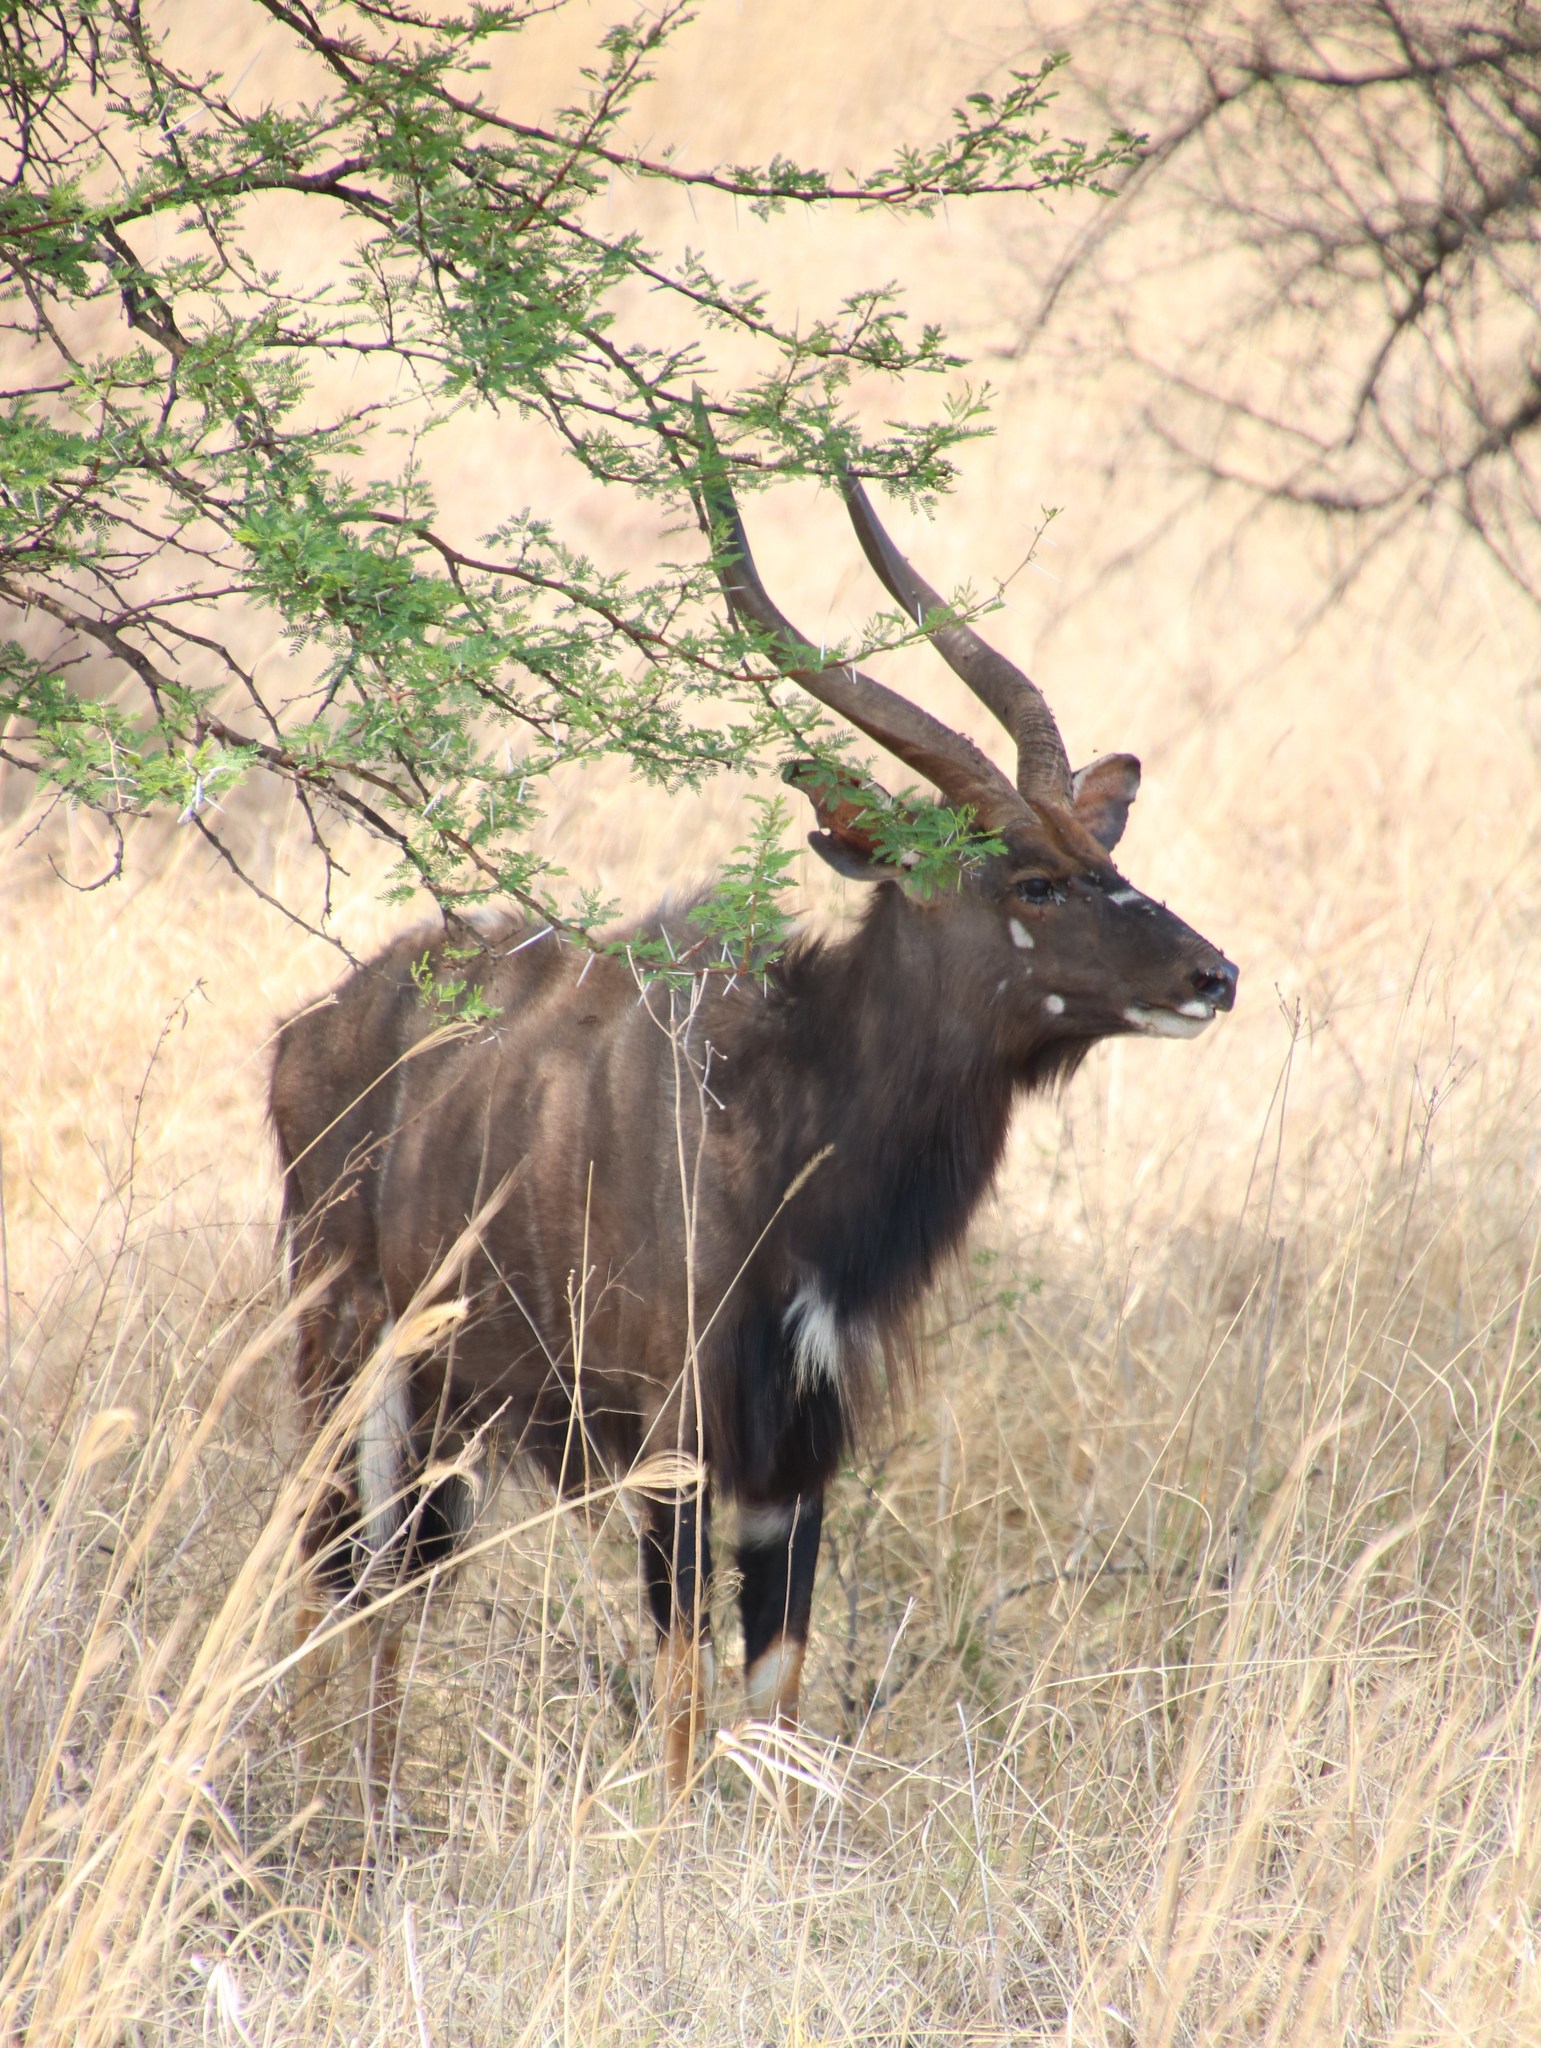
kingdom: Animalia
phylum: Chordata
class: Mammalia
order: Artiodactyla
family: Bovidae
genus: Tragelaphus
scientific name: Tragelaphus angasii
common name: Nyala
